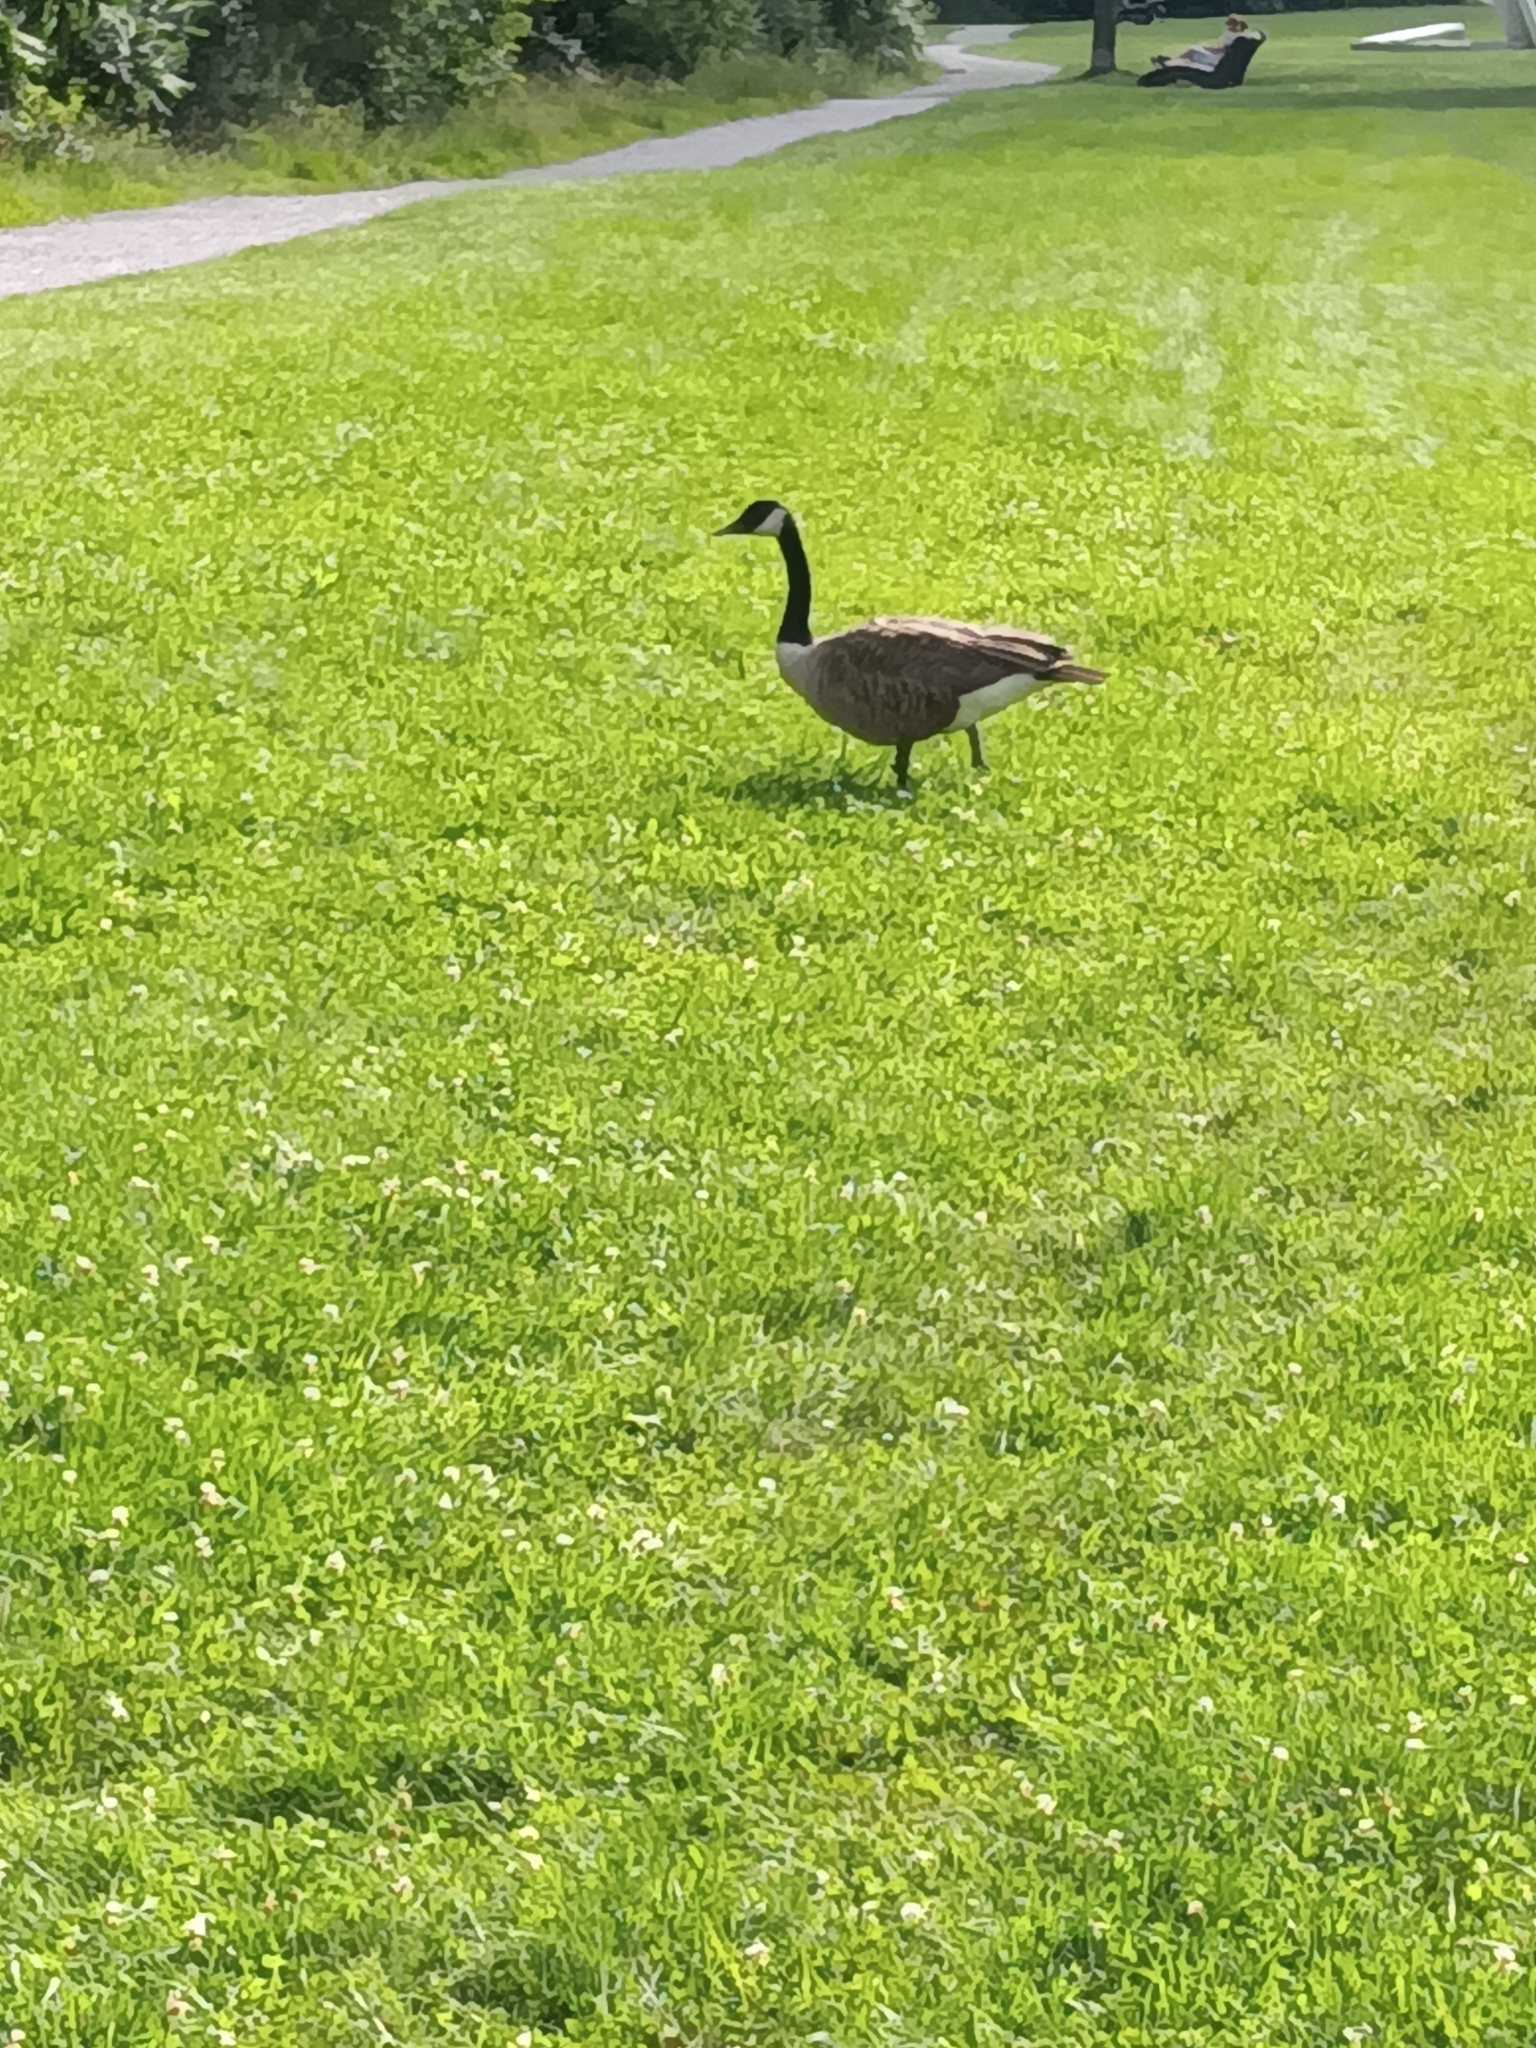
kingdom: Animalia
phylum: Chordata
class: Aves
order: Anseriformes
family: Anatidae
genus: Branta
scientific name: Branta canadensis
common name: Canada goose
